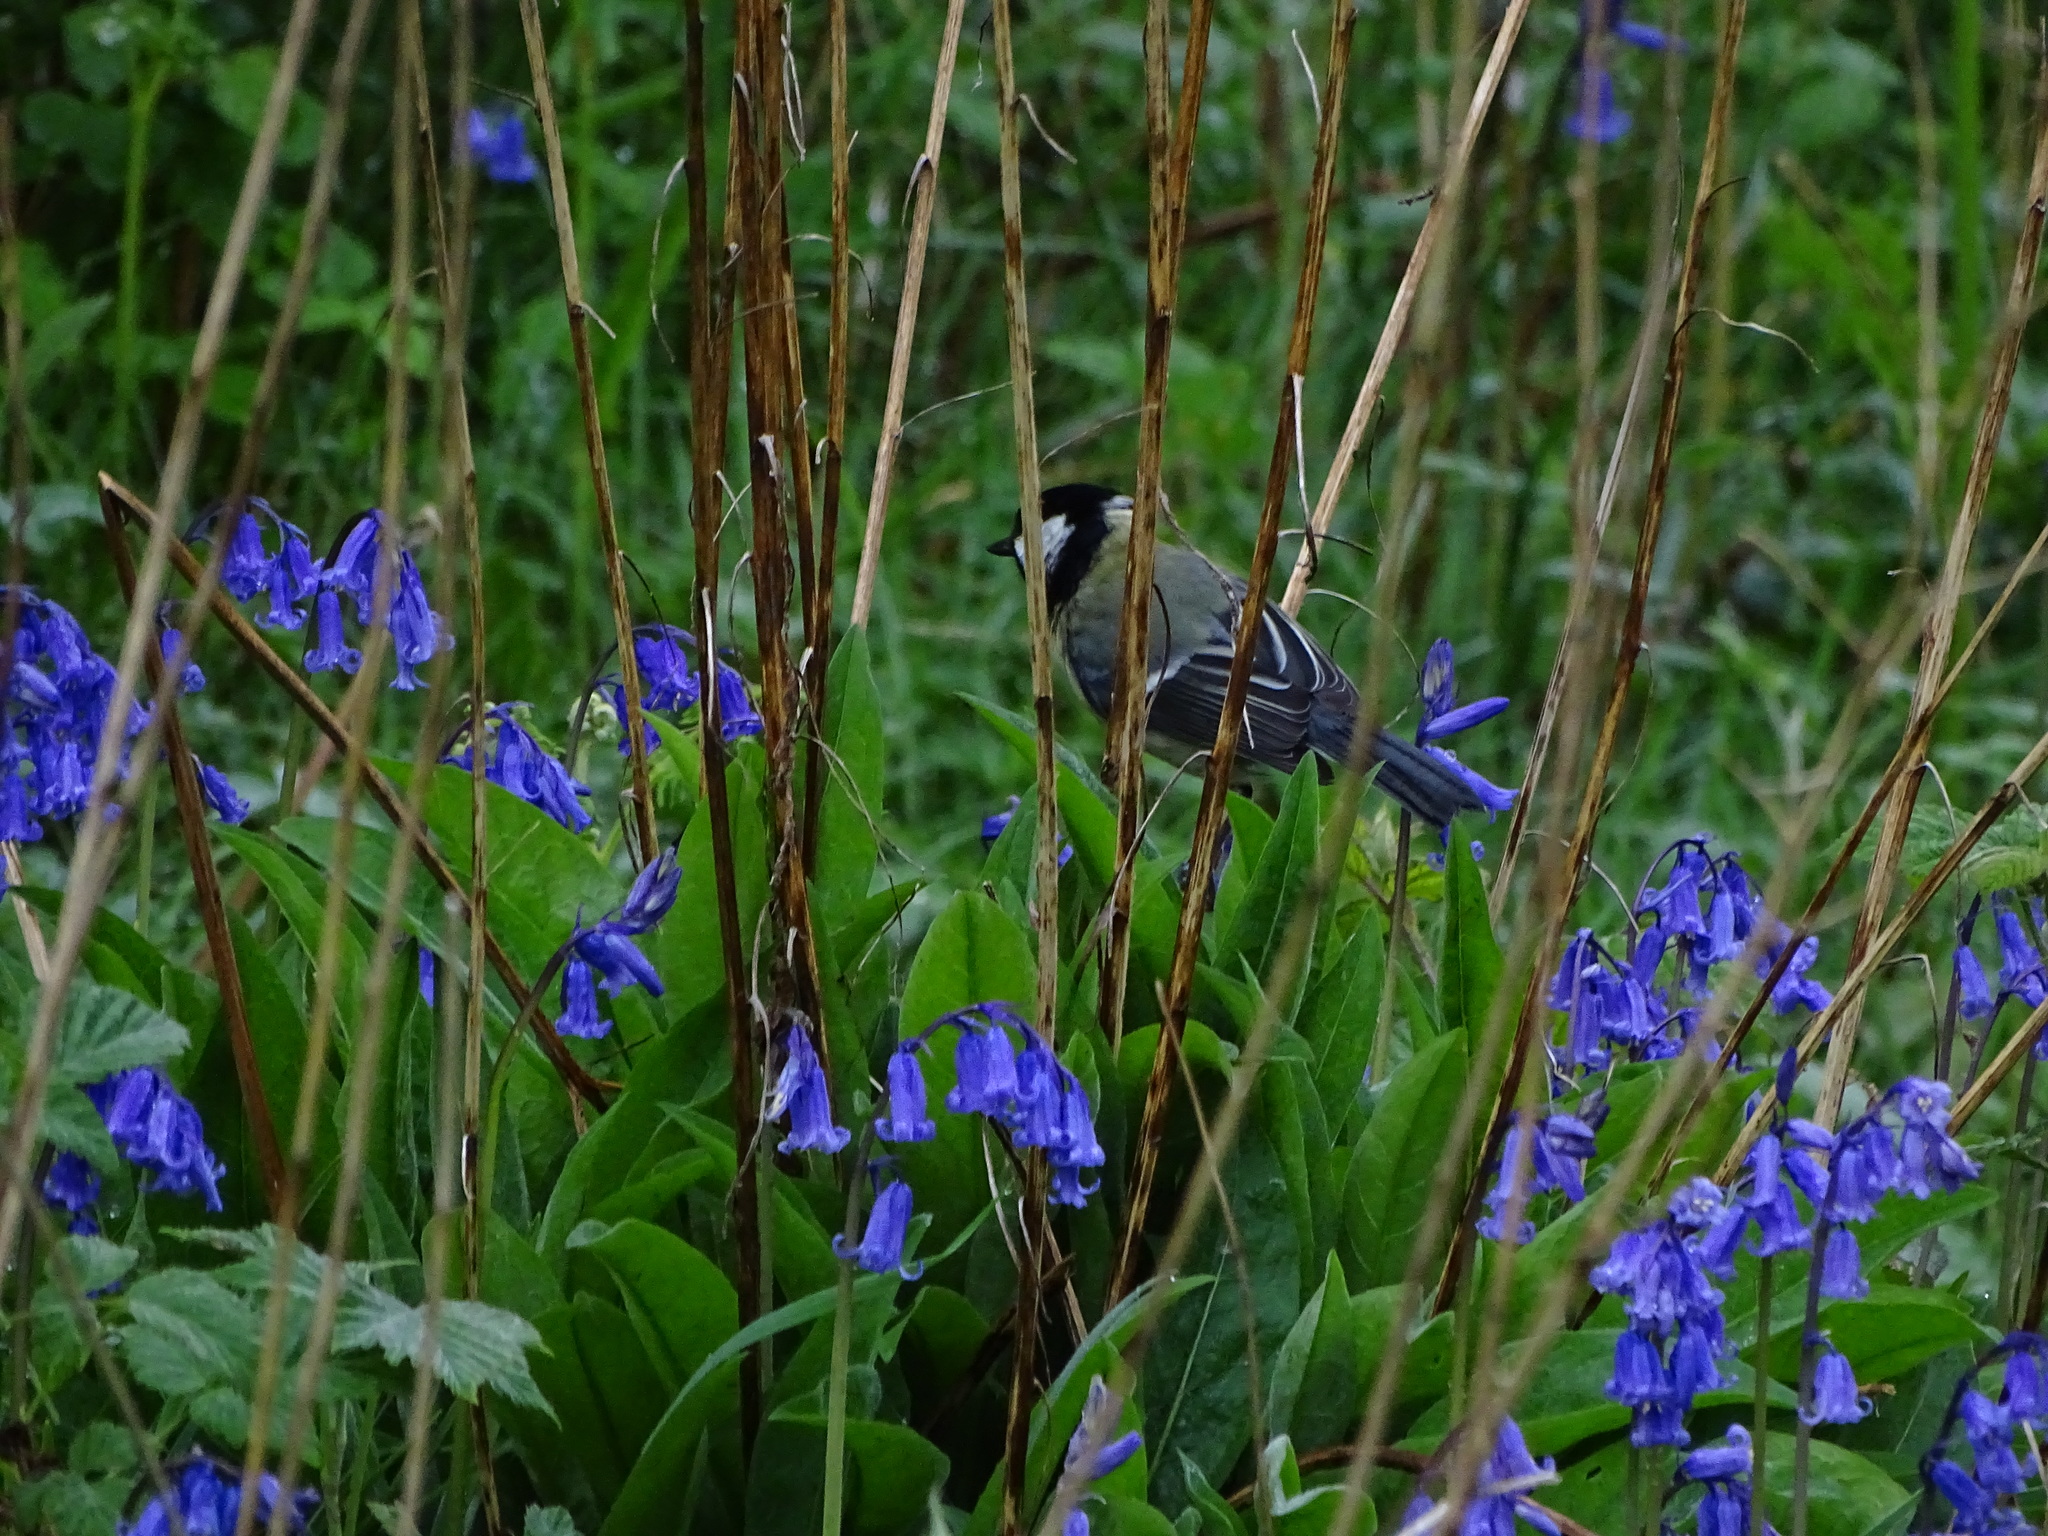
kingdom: Animalia
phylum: Chordata
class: Aves
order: Passeriformes
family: Paridae
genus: Parus
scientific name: Parus major
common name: Great tit
